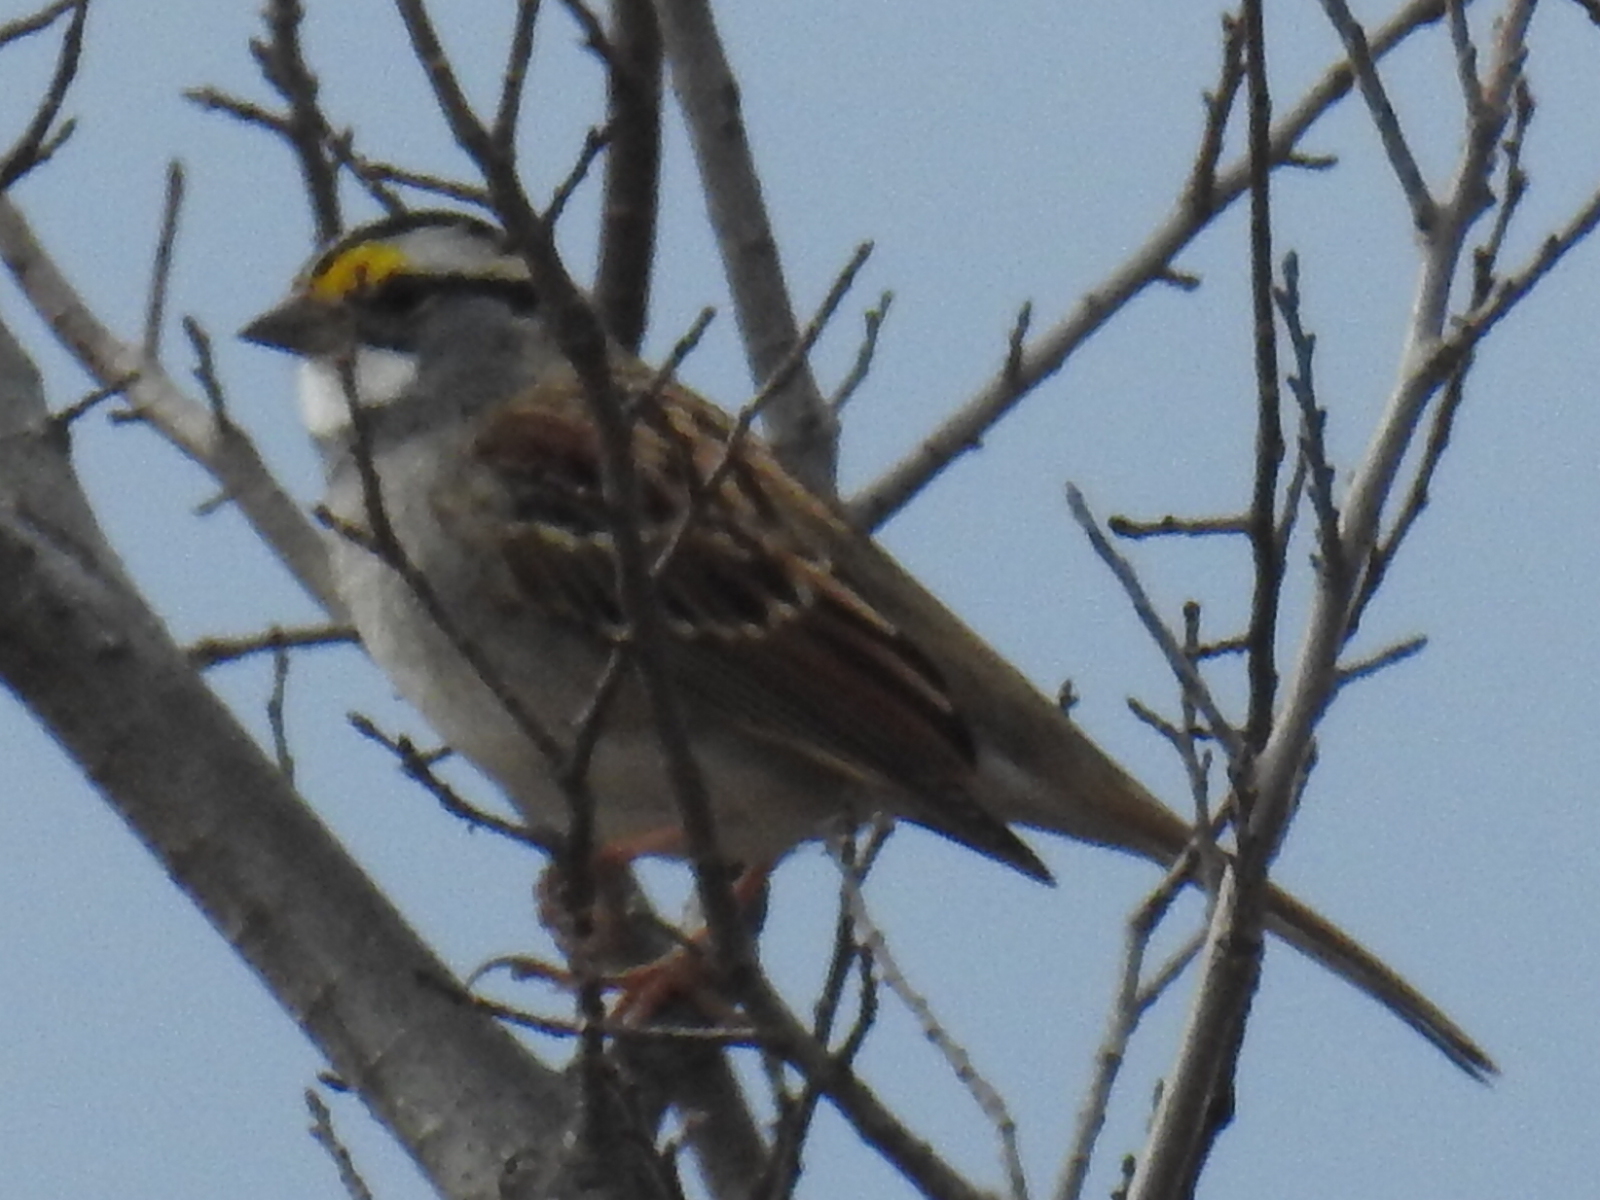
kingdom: Animalia
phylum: Chordata
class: Aves
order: Passeriformes
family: Passerellidae
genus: Zonotrichia
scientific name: Zonotrichia albicollis
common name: White-throated sparrow
